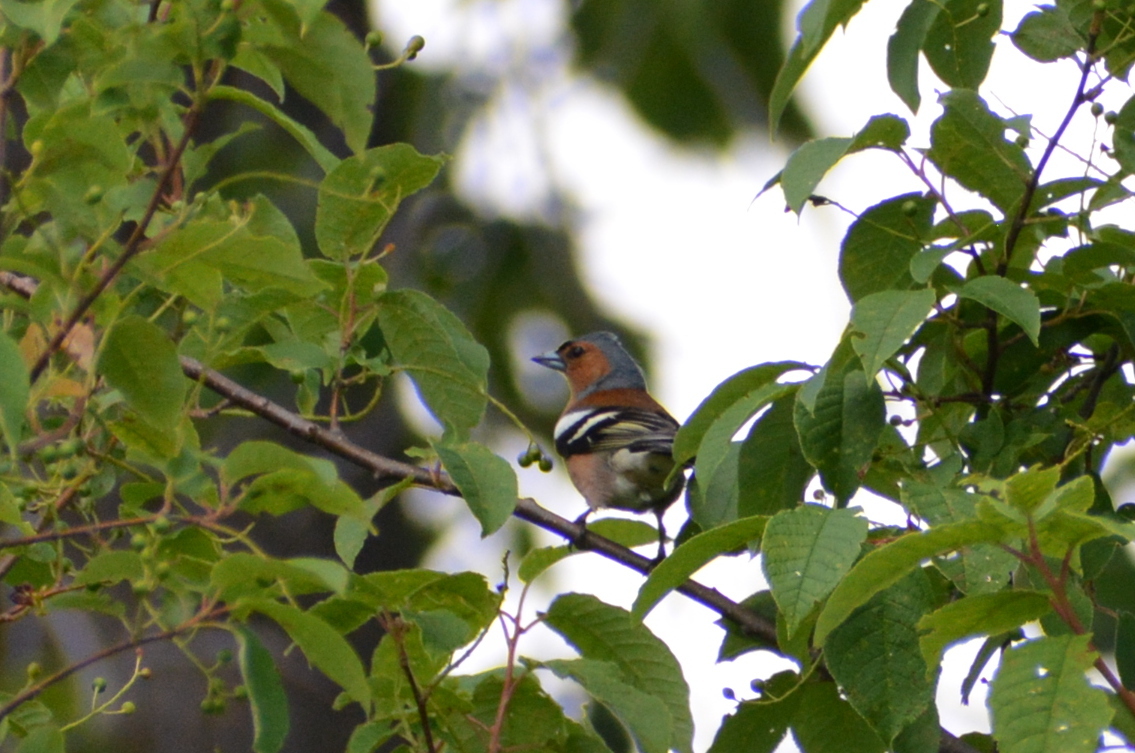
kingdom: Animalia
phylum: Chordata
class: Aves
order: Passeriformes
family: Fringillidae
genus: Fringilla
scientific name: Fringilla coelebs
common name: Common chaffinch
